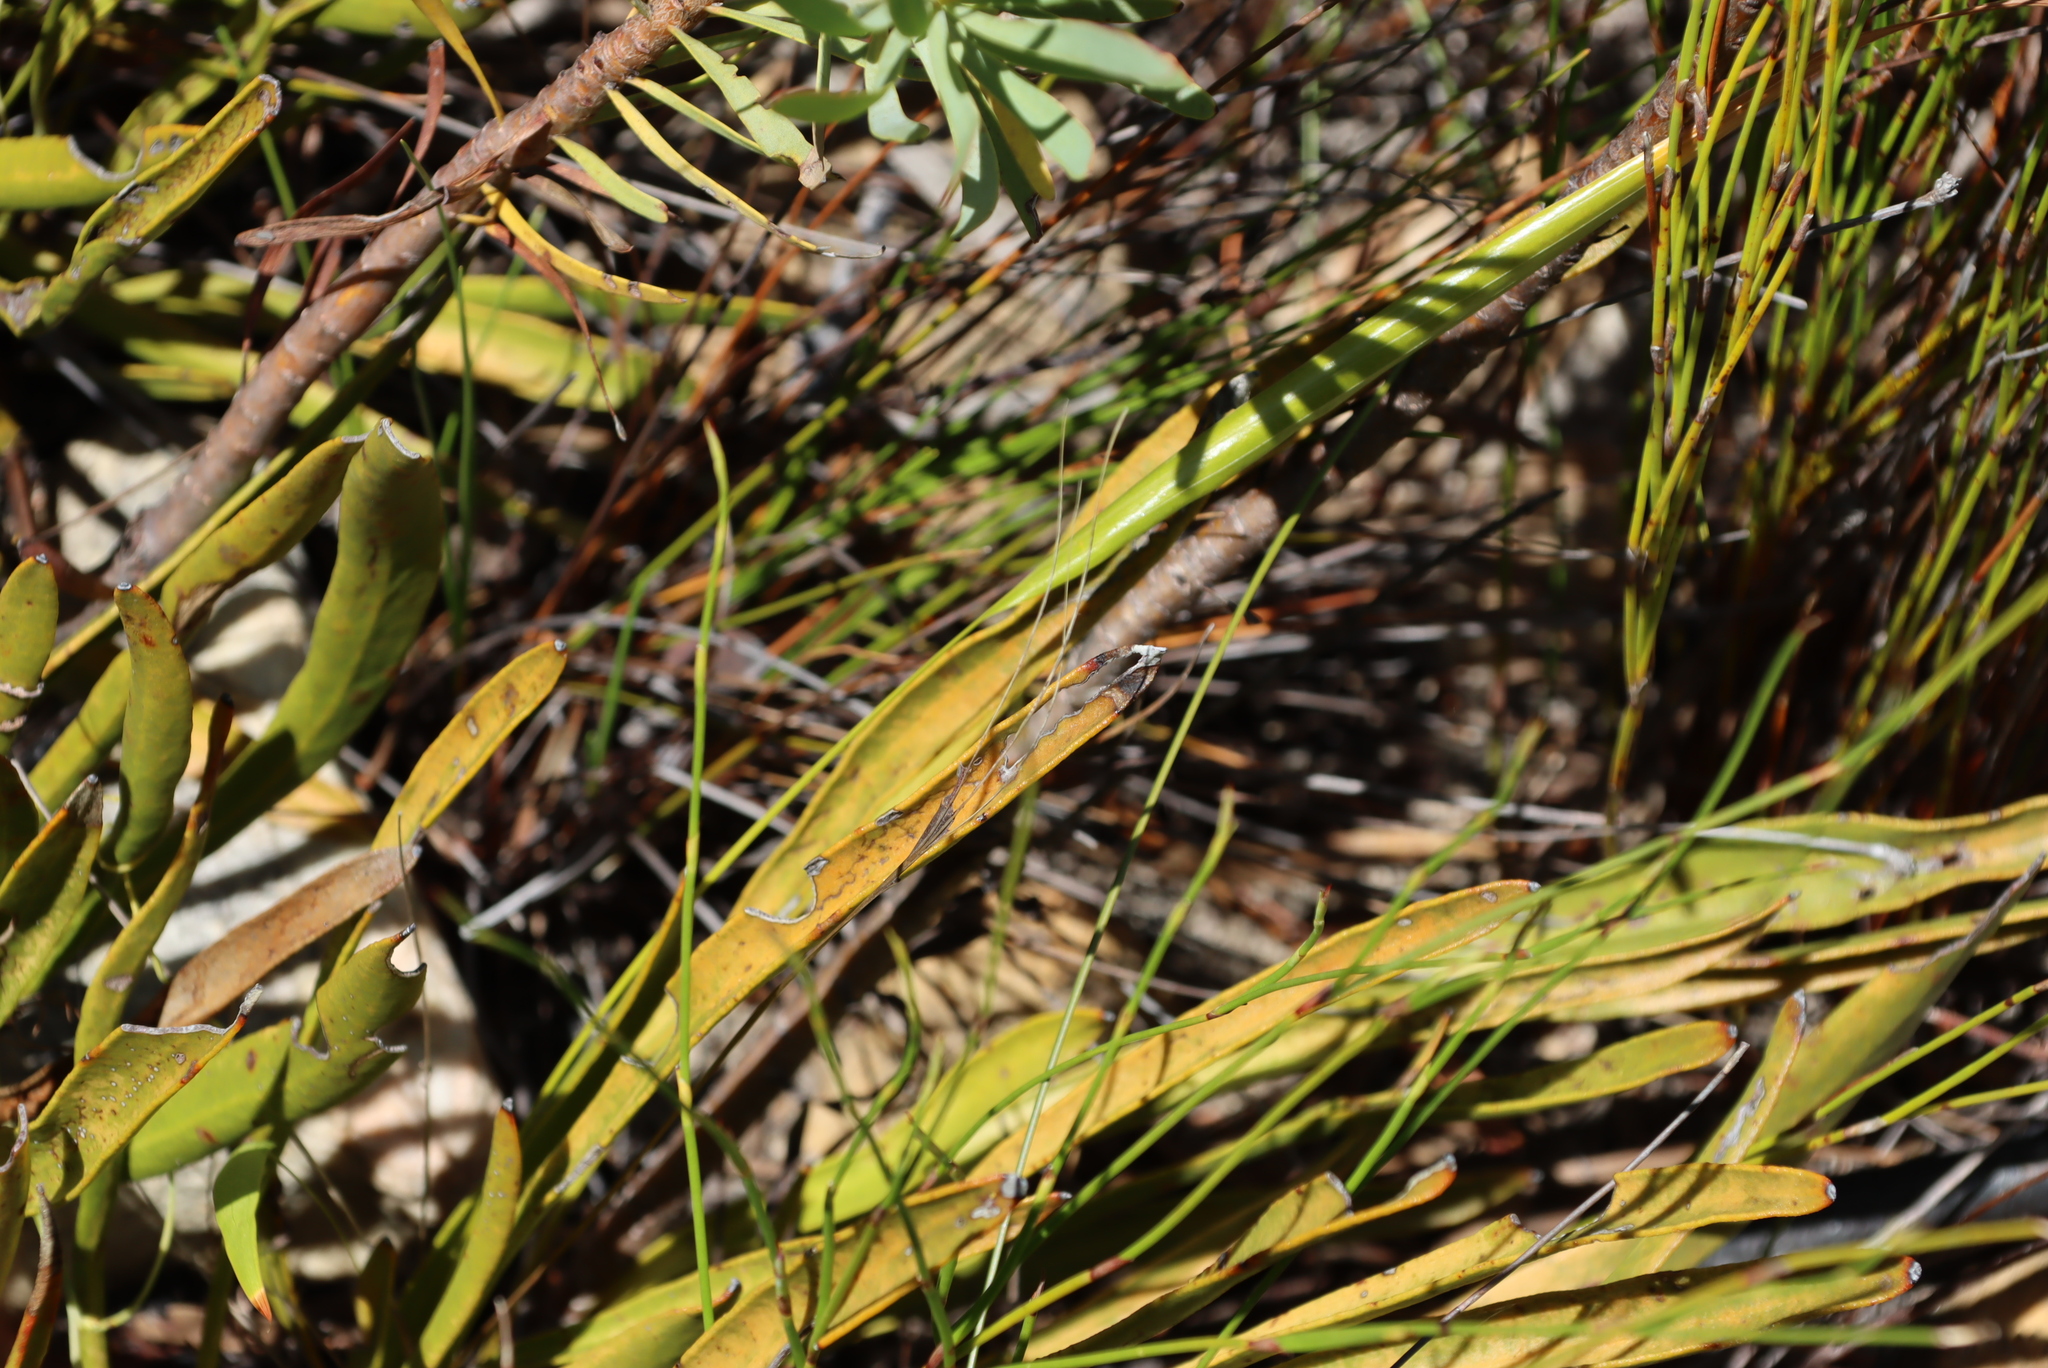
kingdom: Plantae
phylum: Tracheophyta
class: Magnoliopsida
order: Proteales
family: Proteaceae
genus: Protea
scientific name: Protea scabra
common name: Sandpaper-leaf sugarbush
